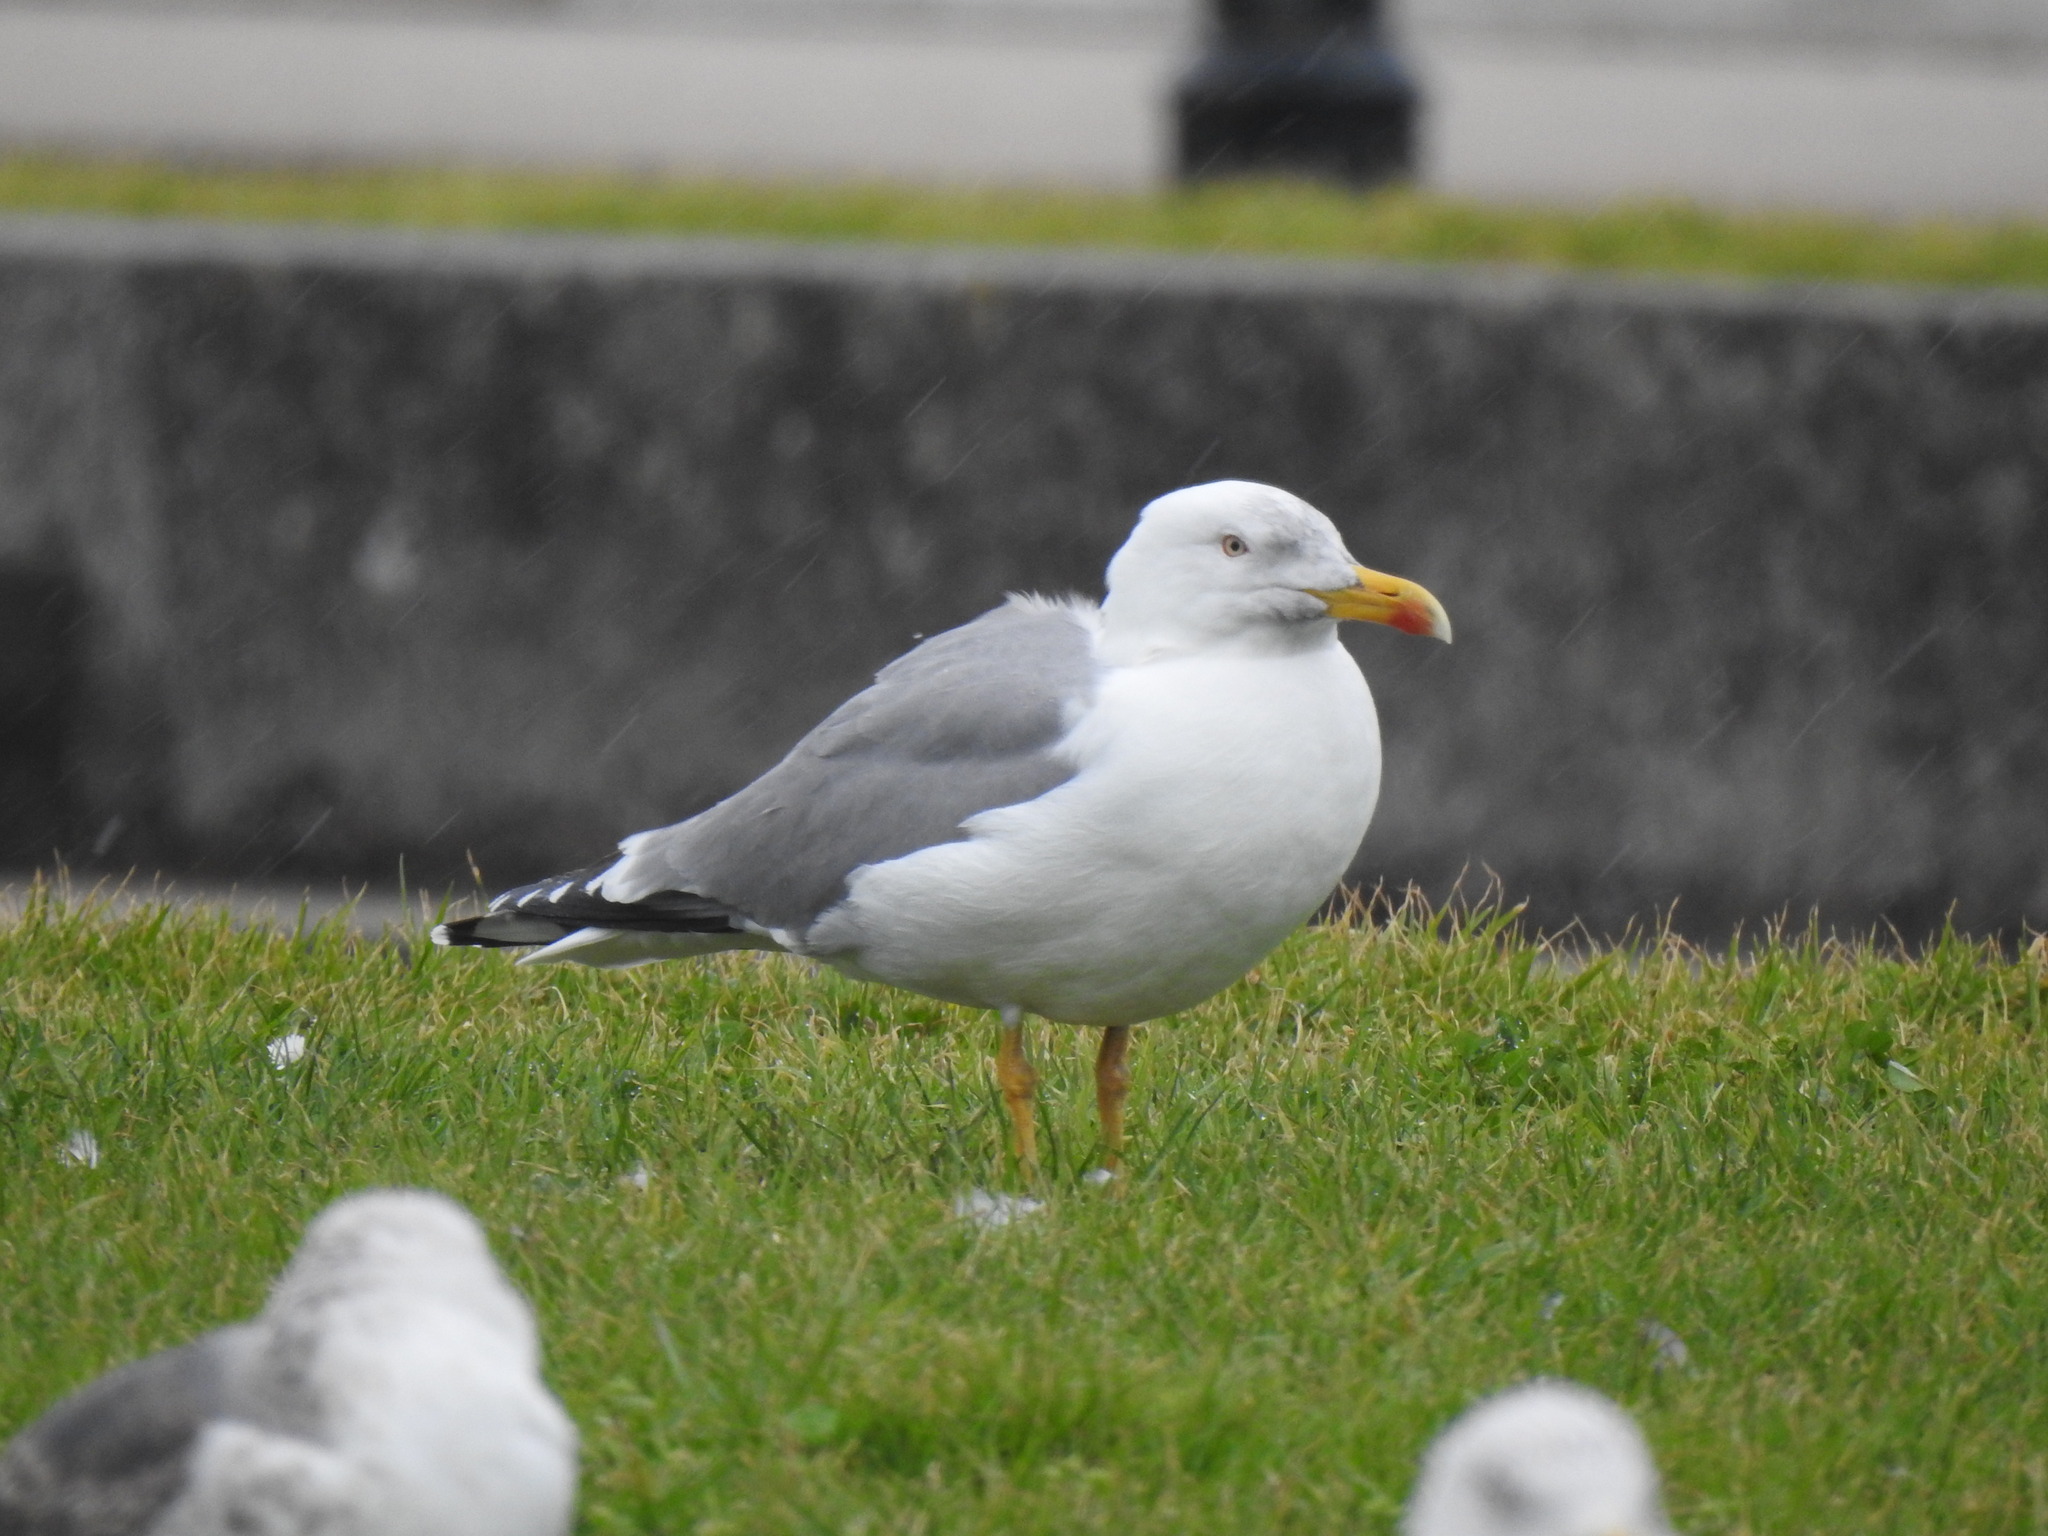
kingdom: Animalia
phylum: Chordata
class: Aves
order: Charadriiformes
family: Laridae
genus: Larus
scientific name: Larus michahellis
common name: Yellow-legged gull
